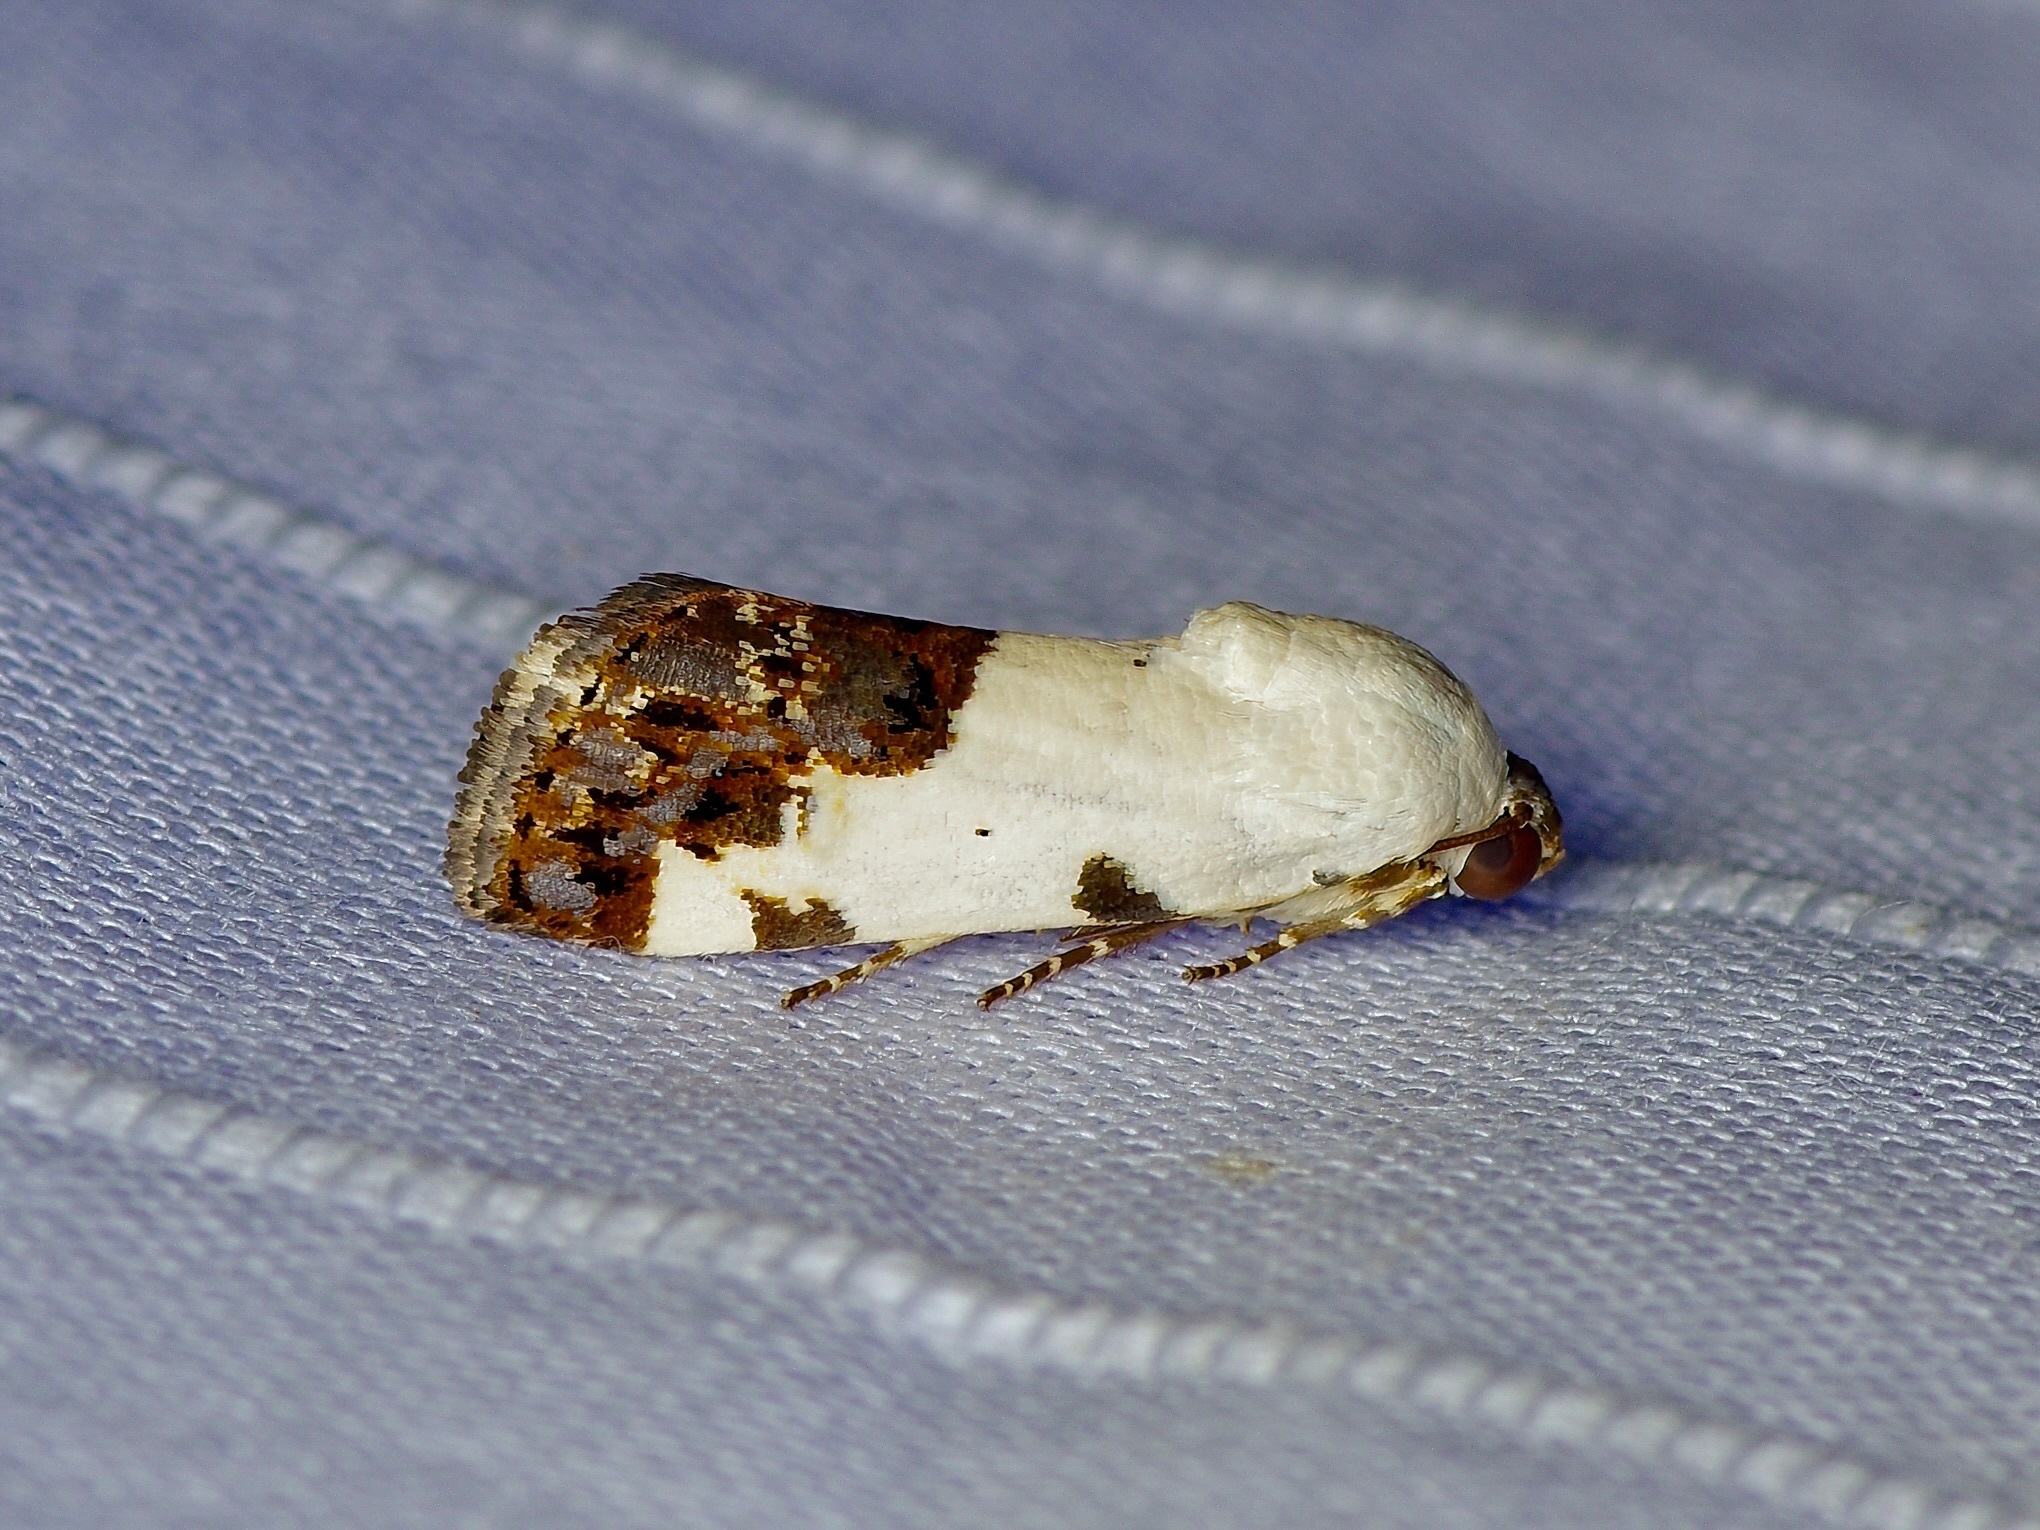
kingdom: Animalia
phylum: Arthropoda
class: Insecta
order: Lepidoptera
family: Noctuidae
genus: Acontia
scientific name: Acontia aprica
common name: Nun
